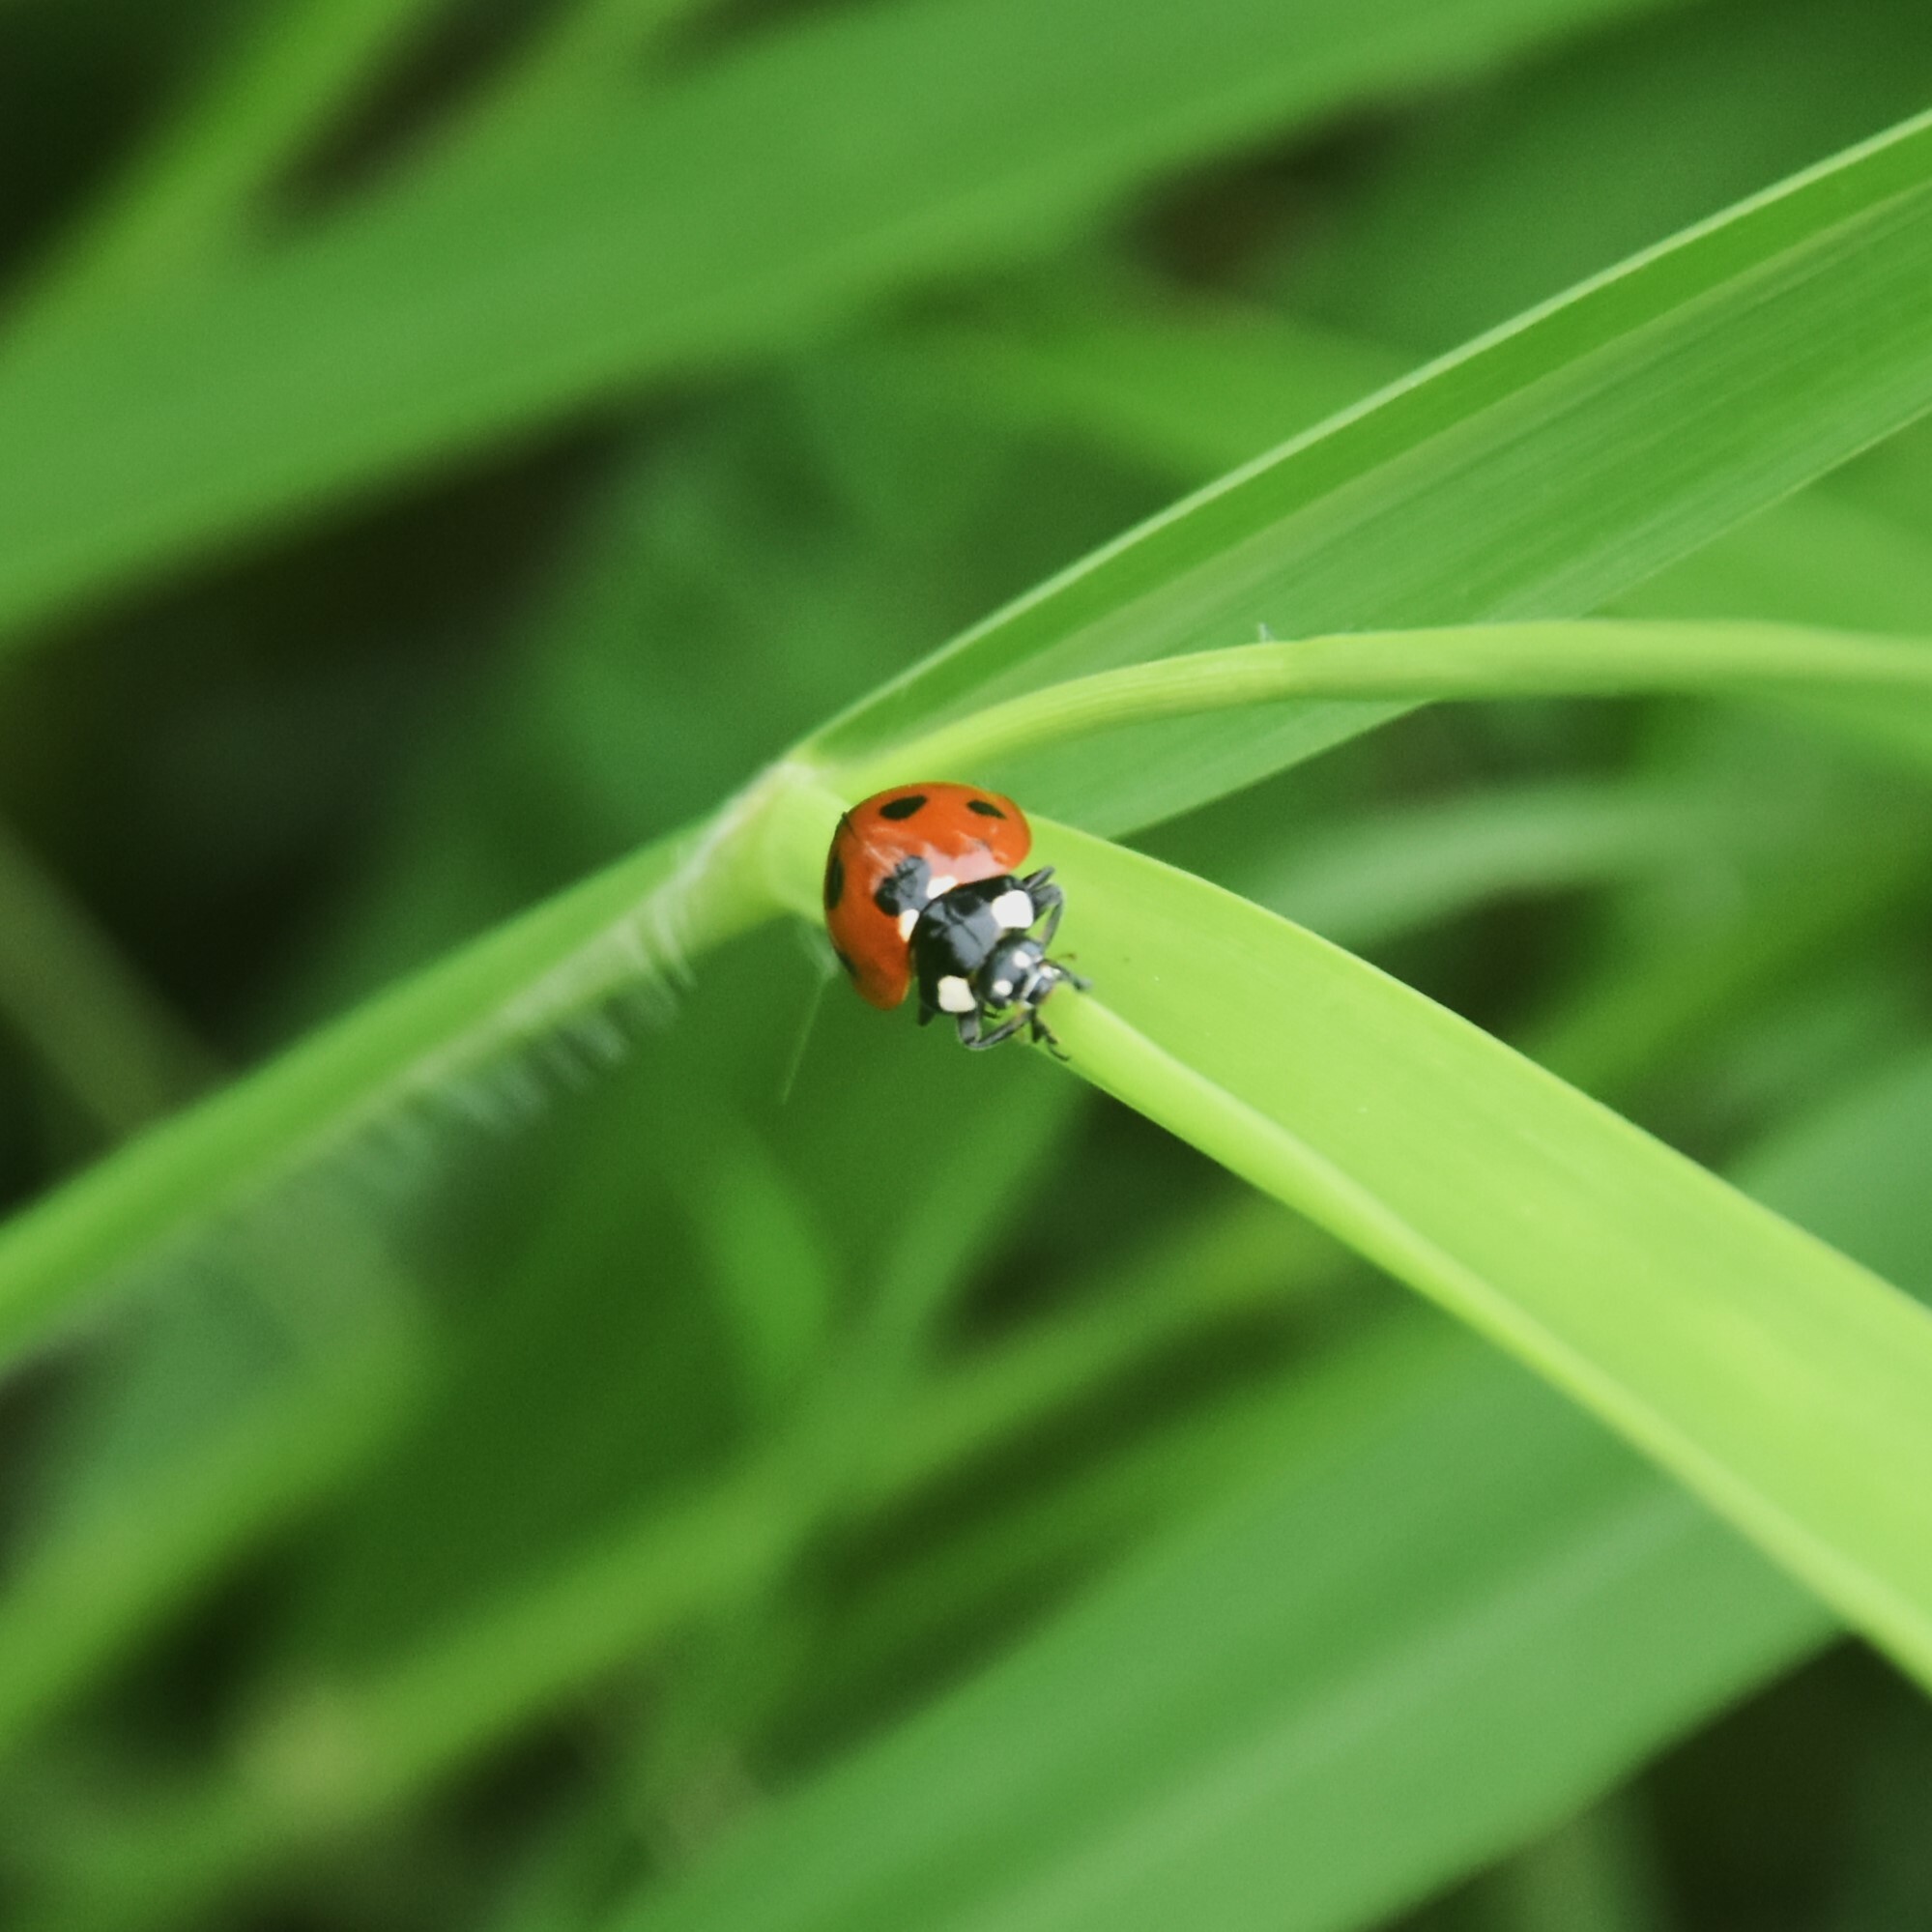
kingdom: Animalia
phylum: Arthropoda
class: Insecta
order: Coleoptera
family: Coccinellidae
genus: Coccinella
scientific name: Coccinella septempunctata
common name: Sevenspotted lady beetle
